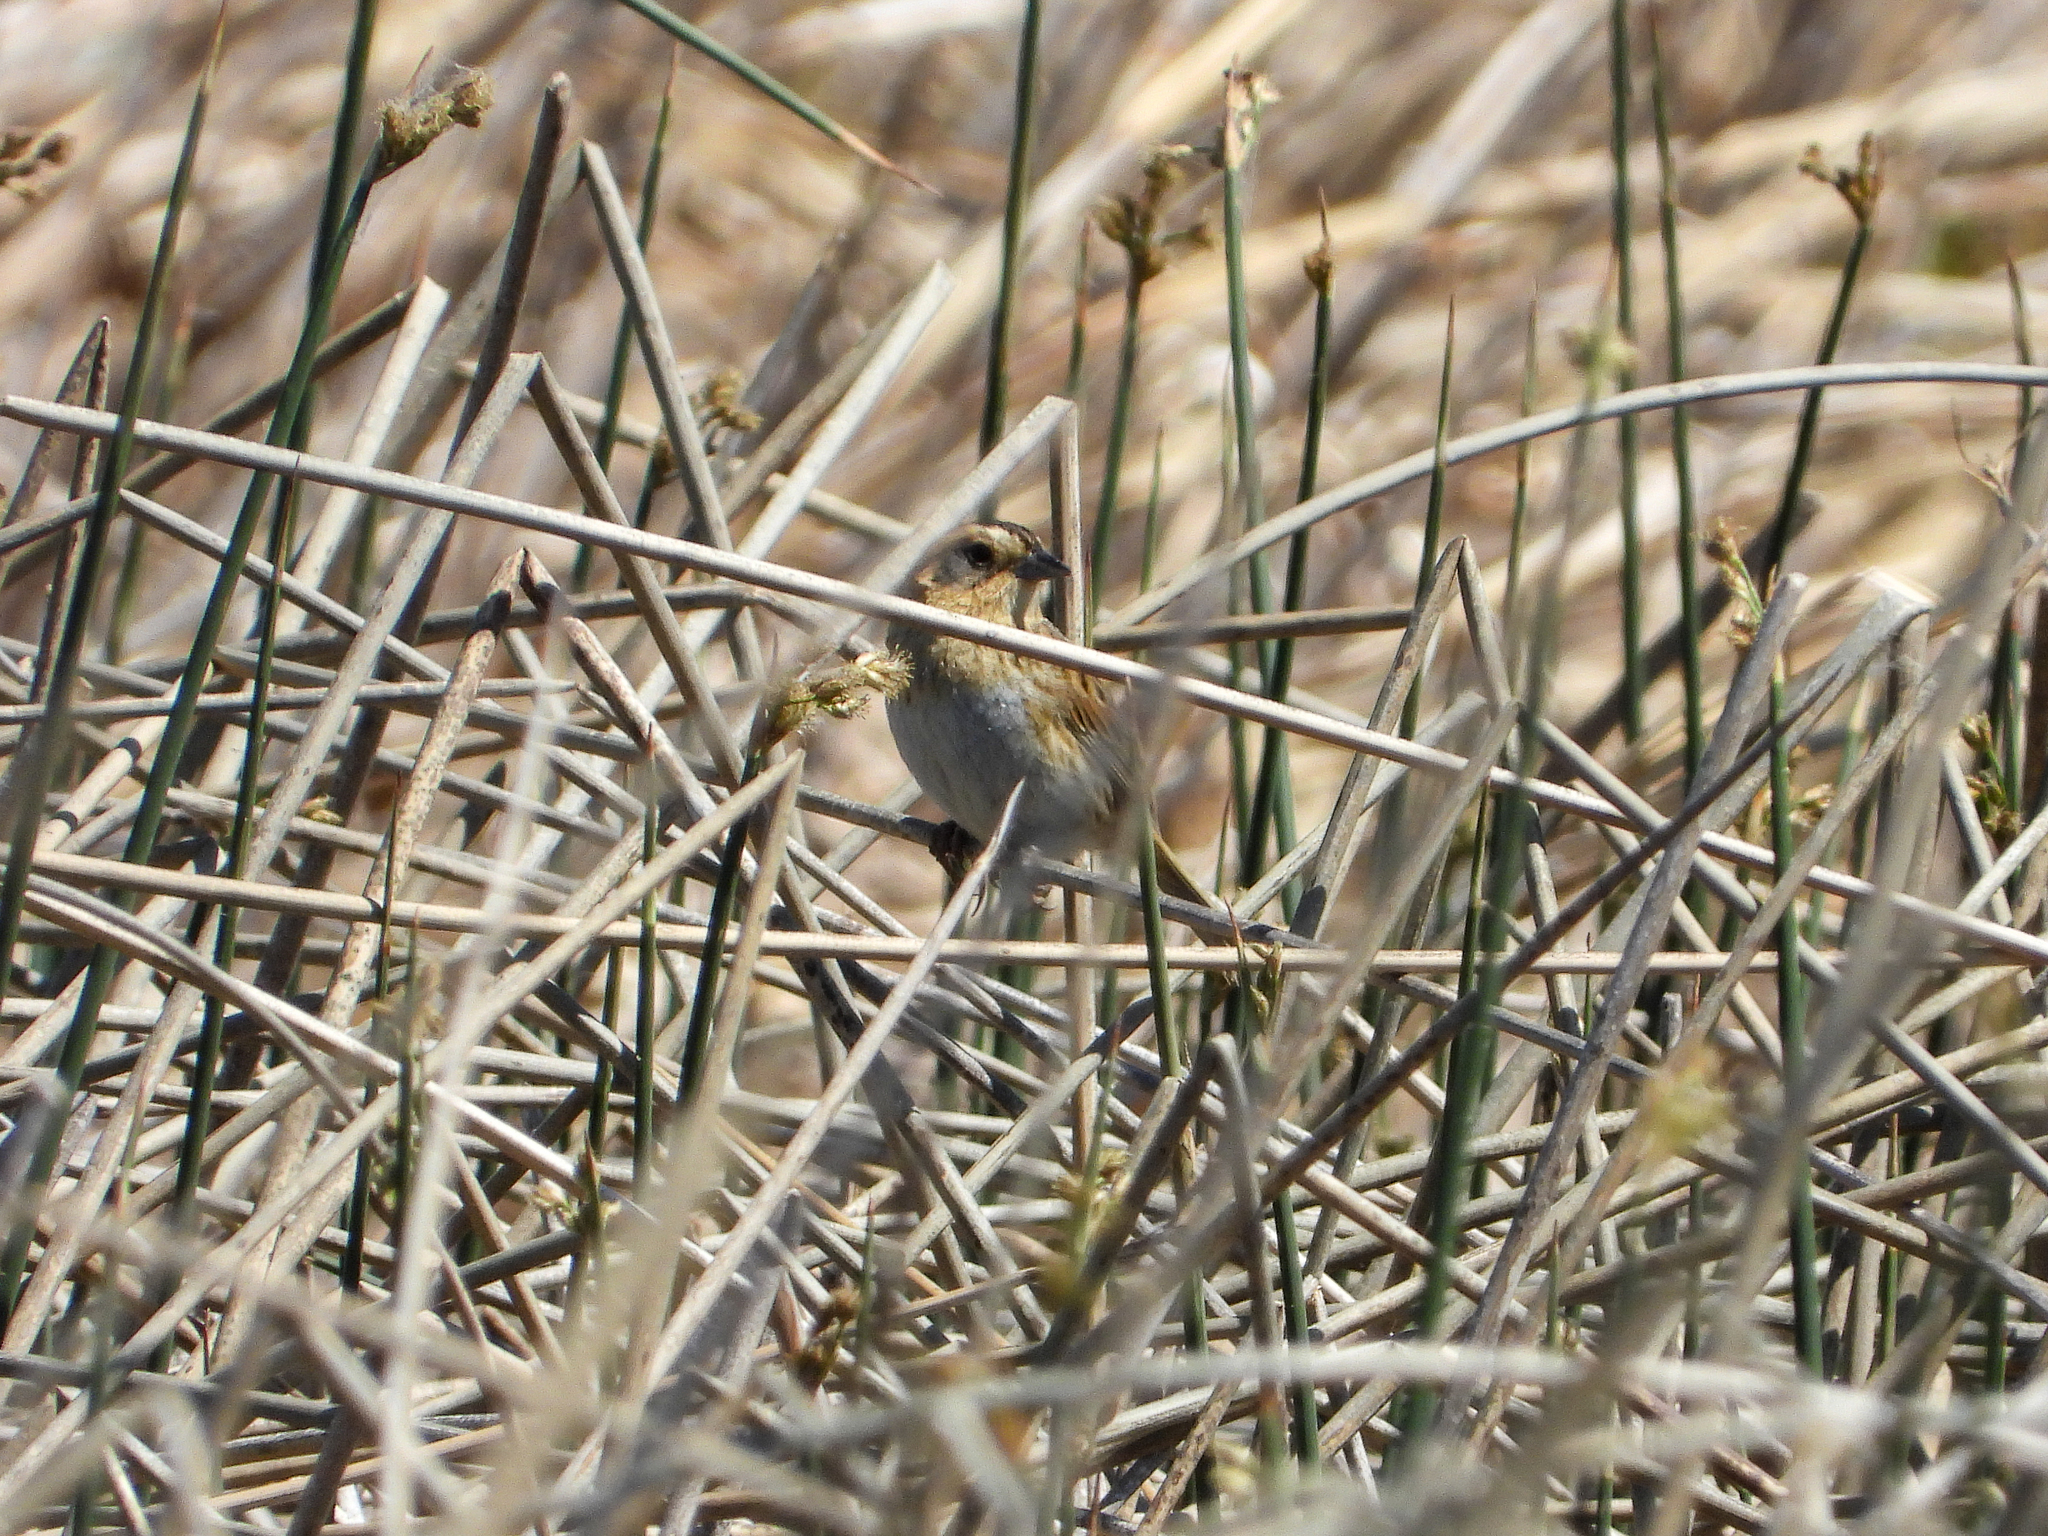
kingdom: Animalia
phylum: Chordata
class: Aves
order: Passeriformes
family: Passerellidae
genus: Ammospiza
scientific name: Ammospiza nelsoni
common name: Nelson's sparrow
